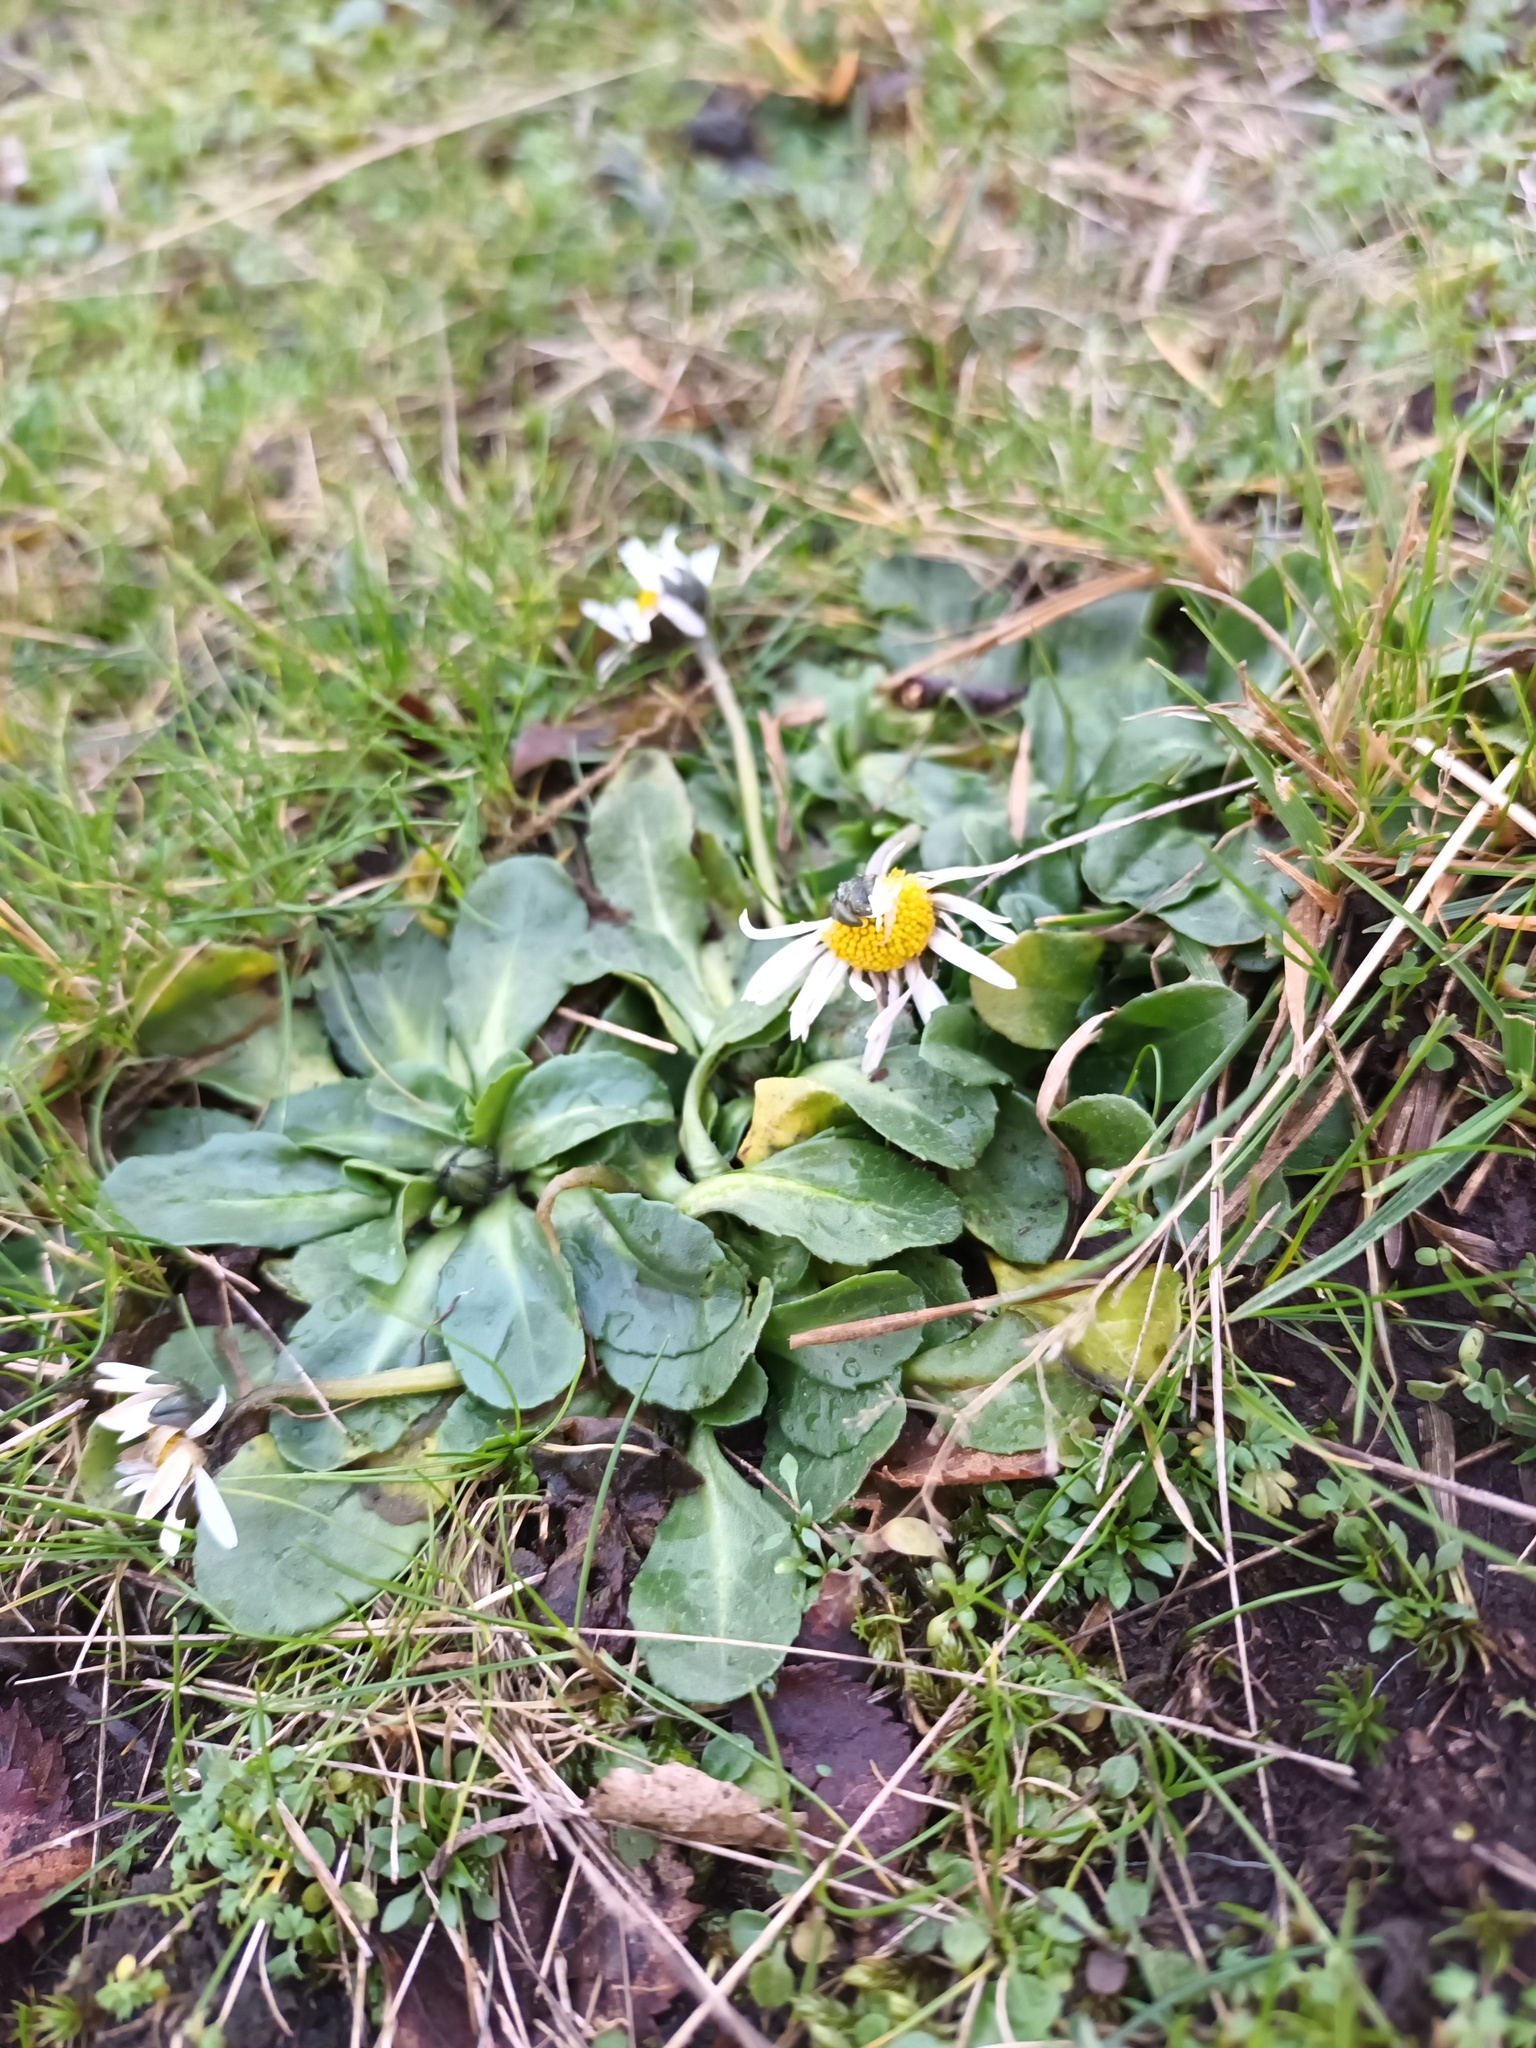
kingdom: Plantae
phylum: Tracheophyta
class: Magnoliopsida
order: Asterales
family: Asteraceae
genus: Bellis
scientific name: Bellis perennis
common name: Lawndaisy
